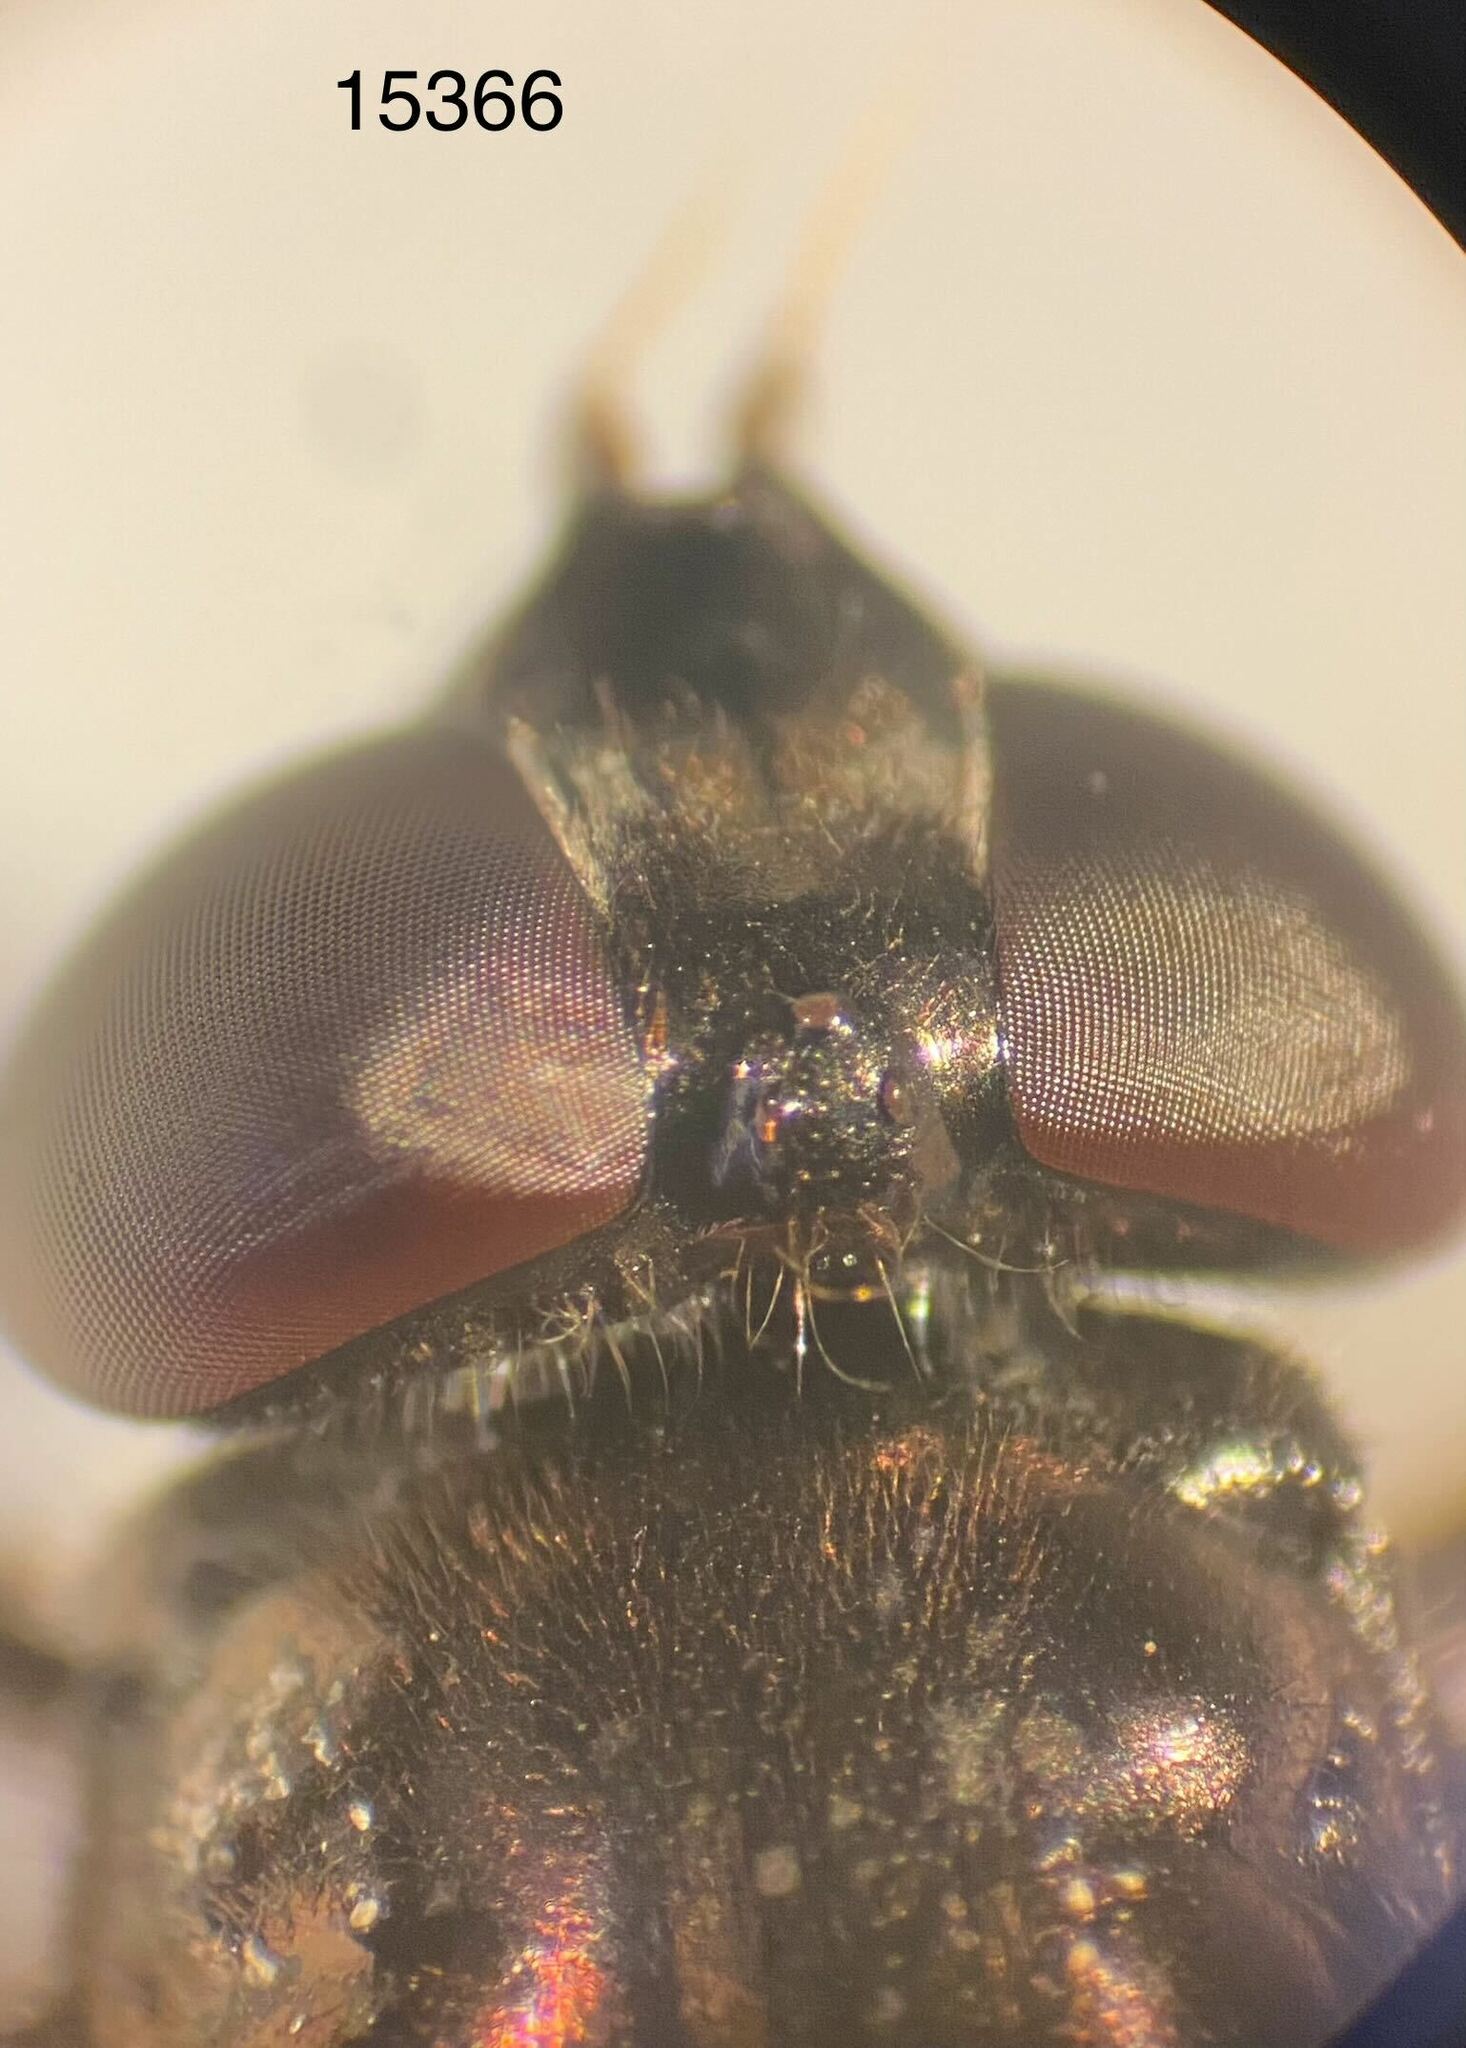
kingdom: Animalia
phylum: Arthropoda
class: Insecta
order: Diptera
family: Syrphidae
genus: Chalcosyrphus
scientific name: Chalcosyrphus libo
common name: Long-haired forest fly
